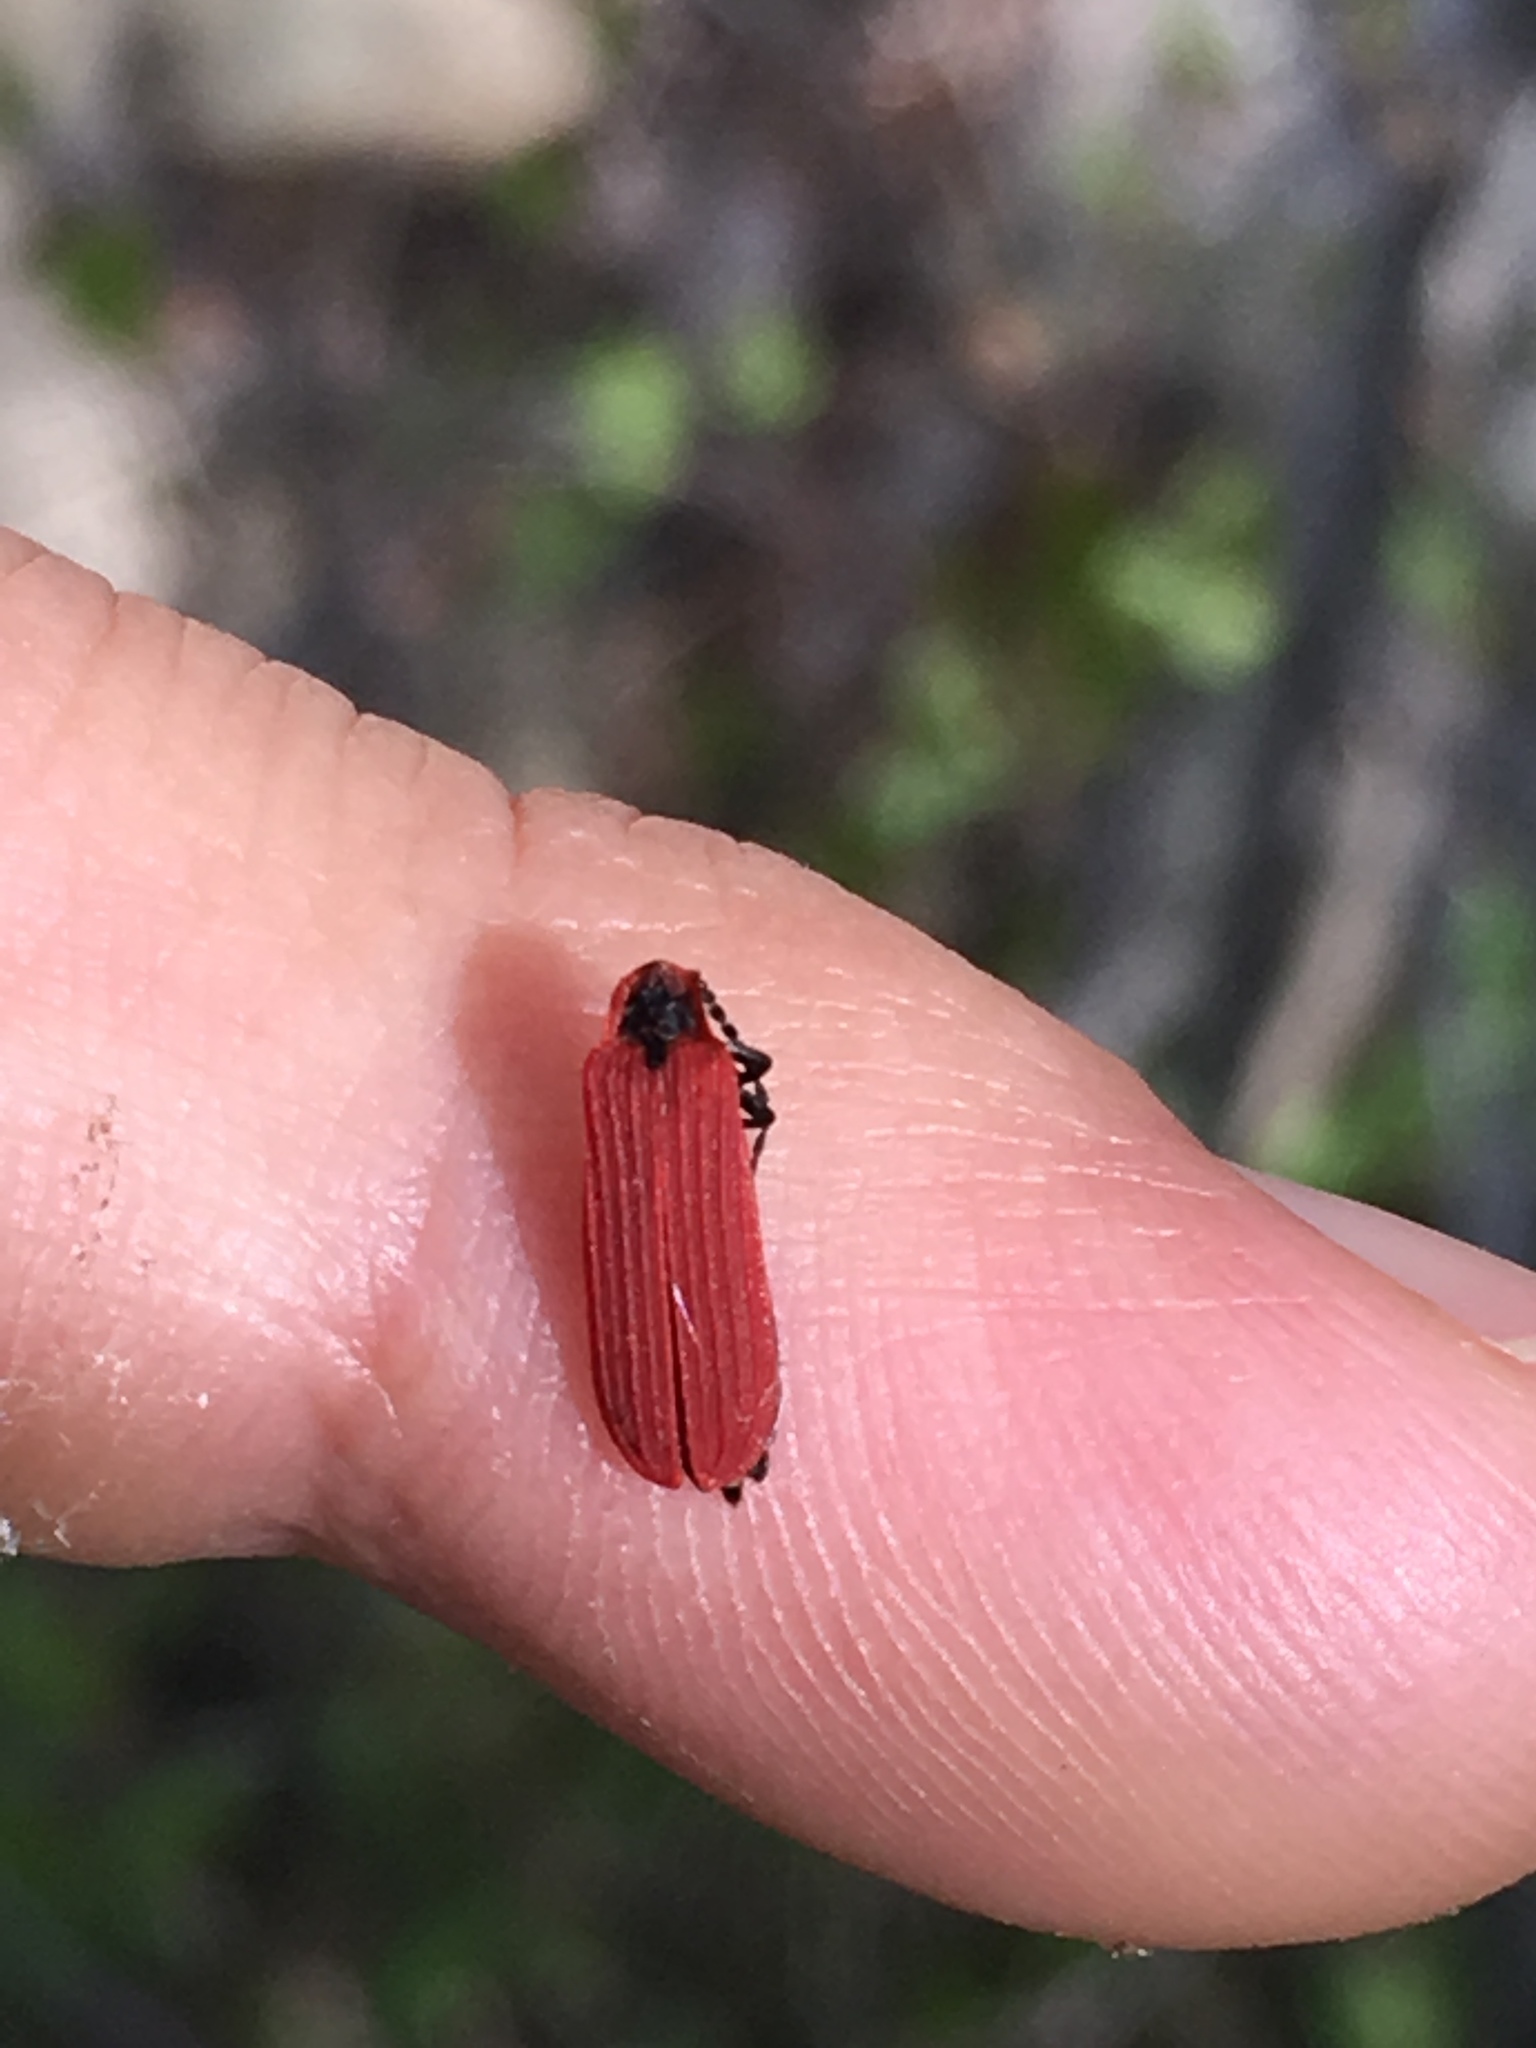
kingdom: Animalia
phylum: Arthropoda
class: Insecta
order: Coleoptera
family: Lycidae
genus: Dictyoptera
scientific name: Dictyoptera aurora
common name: Golden net-winged beetle
